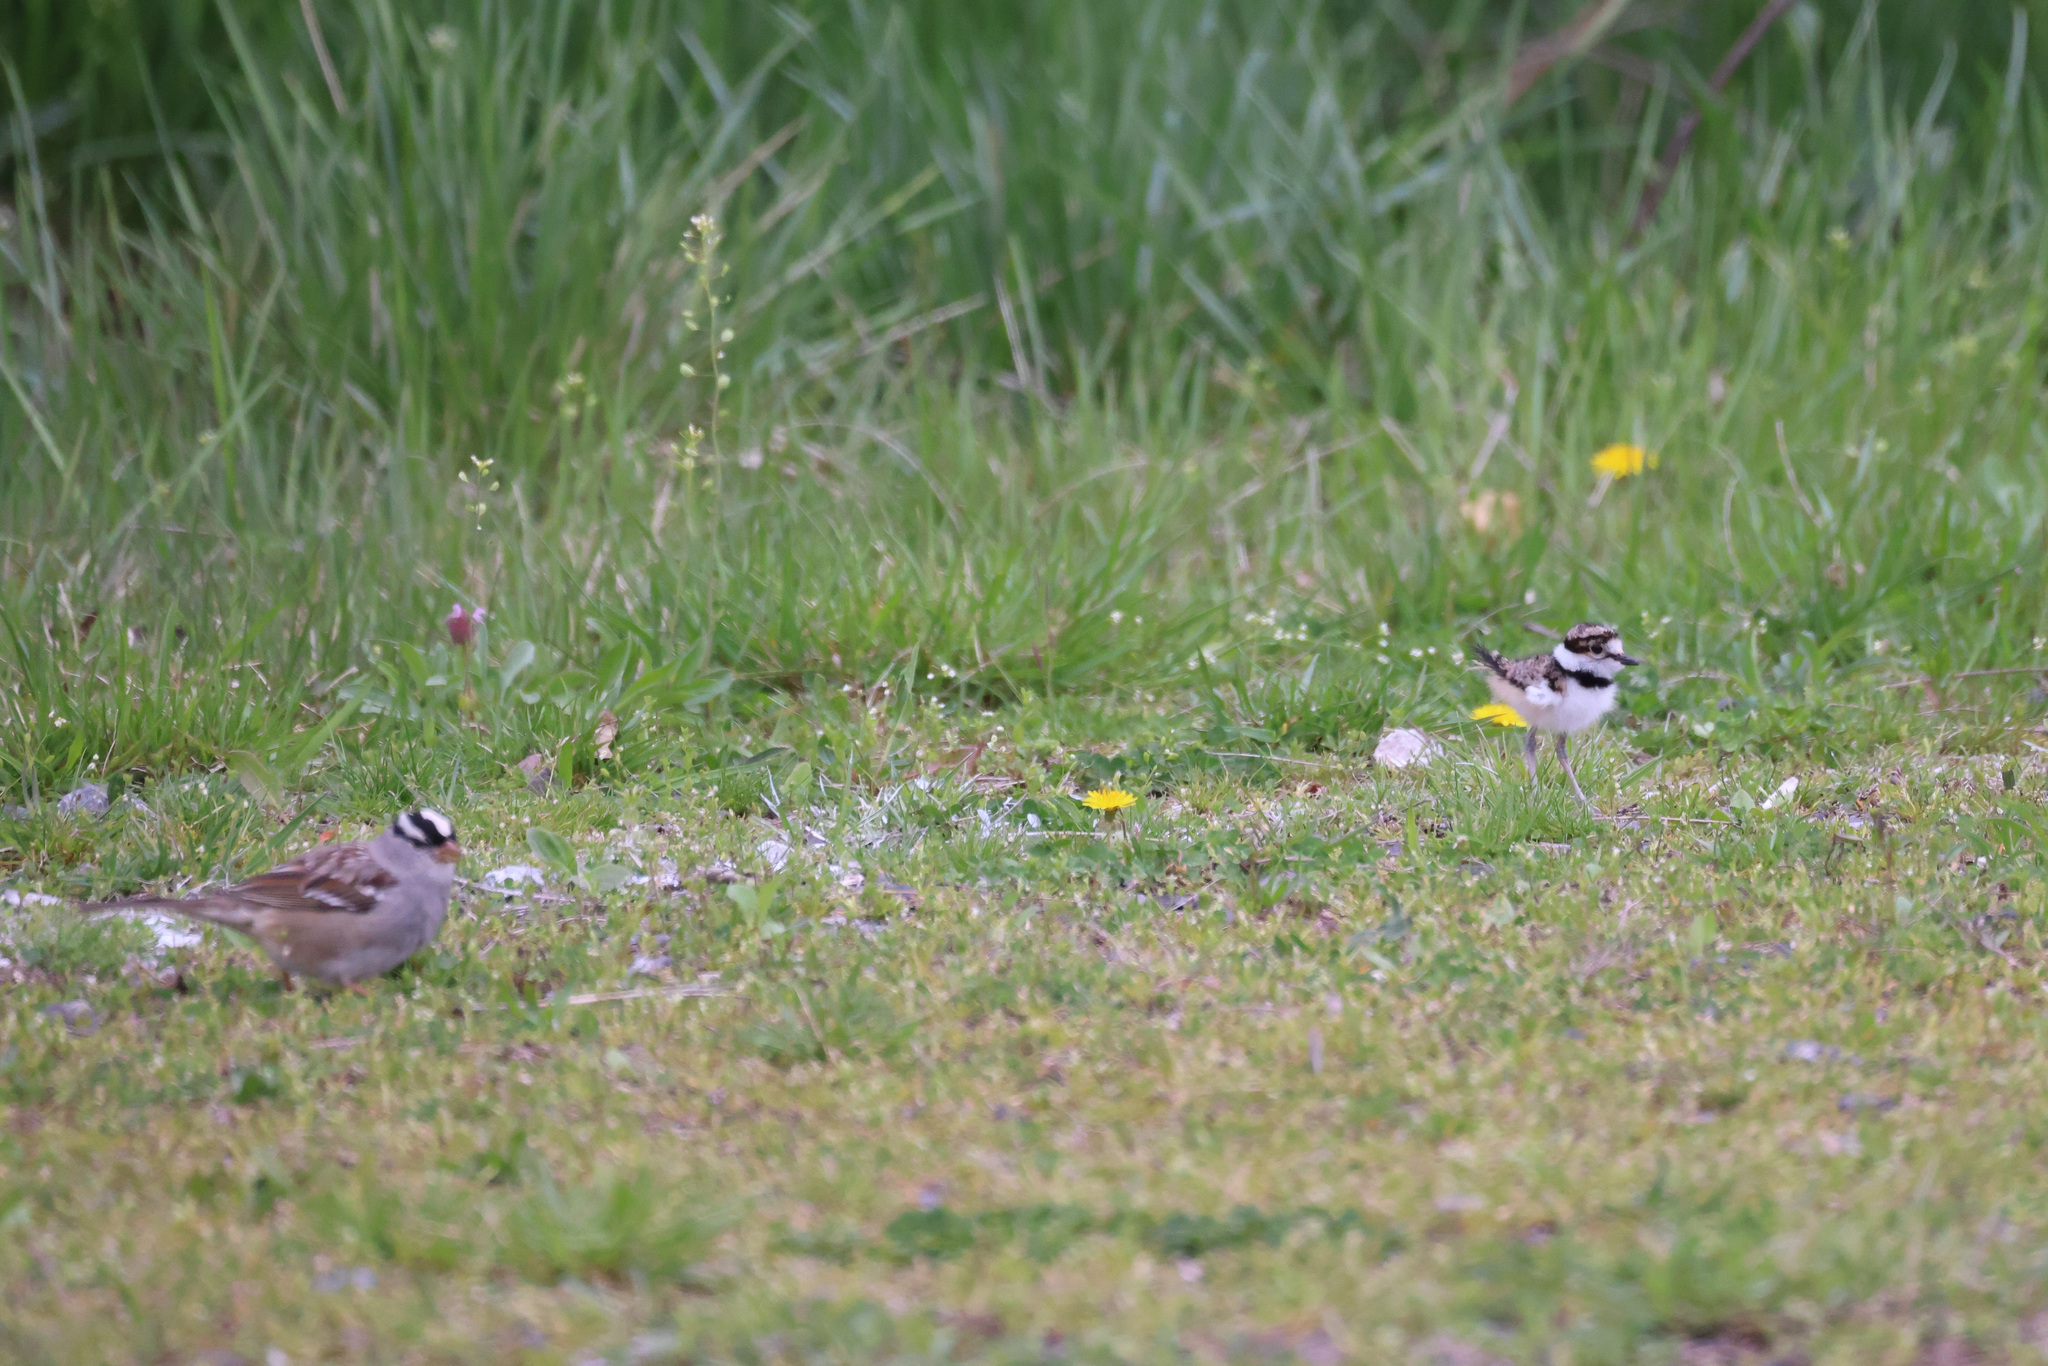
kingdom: Animalia
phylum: Chordata
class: Aves
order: Passeriformes
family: Passerellidae
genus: Zonotrichia
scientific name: Zonotrichia leucophrys
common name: White-crowned sparrow
